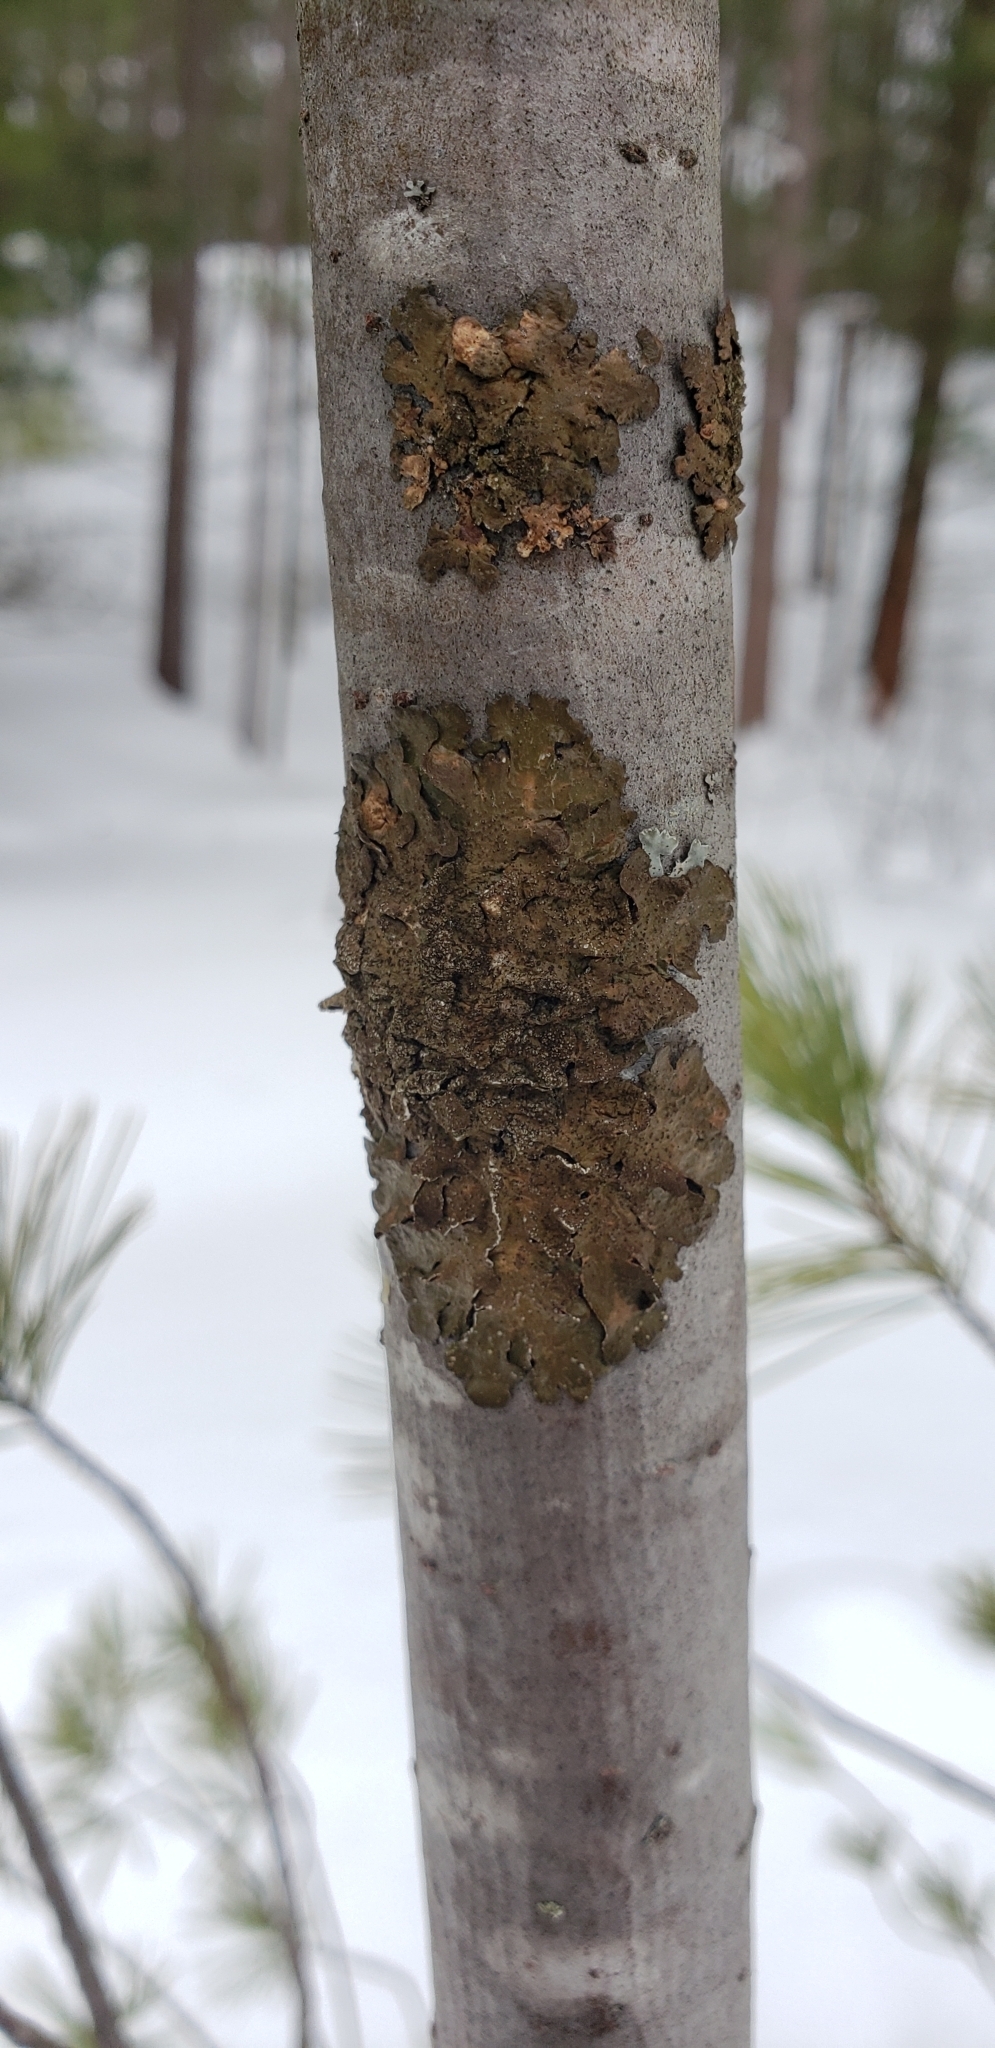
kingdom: Fungi
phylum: Ascomycota
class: Lecanoromycetes
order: Lecanorales
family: Parmeliaceae
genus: Melanelixia
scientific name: Melanelixia subaurifera
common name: Abraded camouflage lichen
